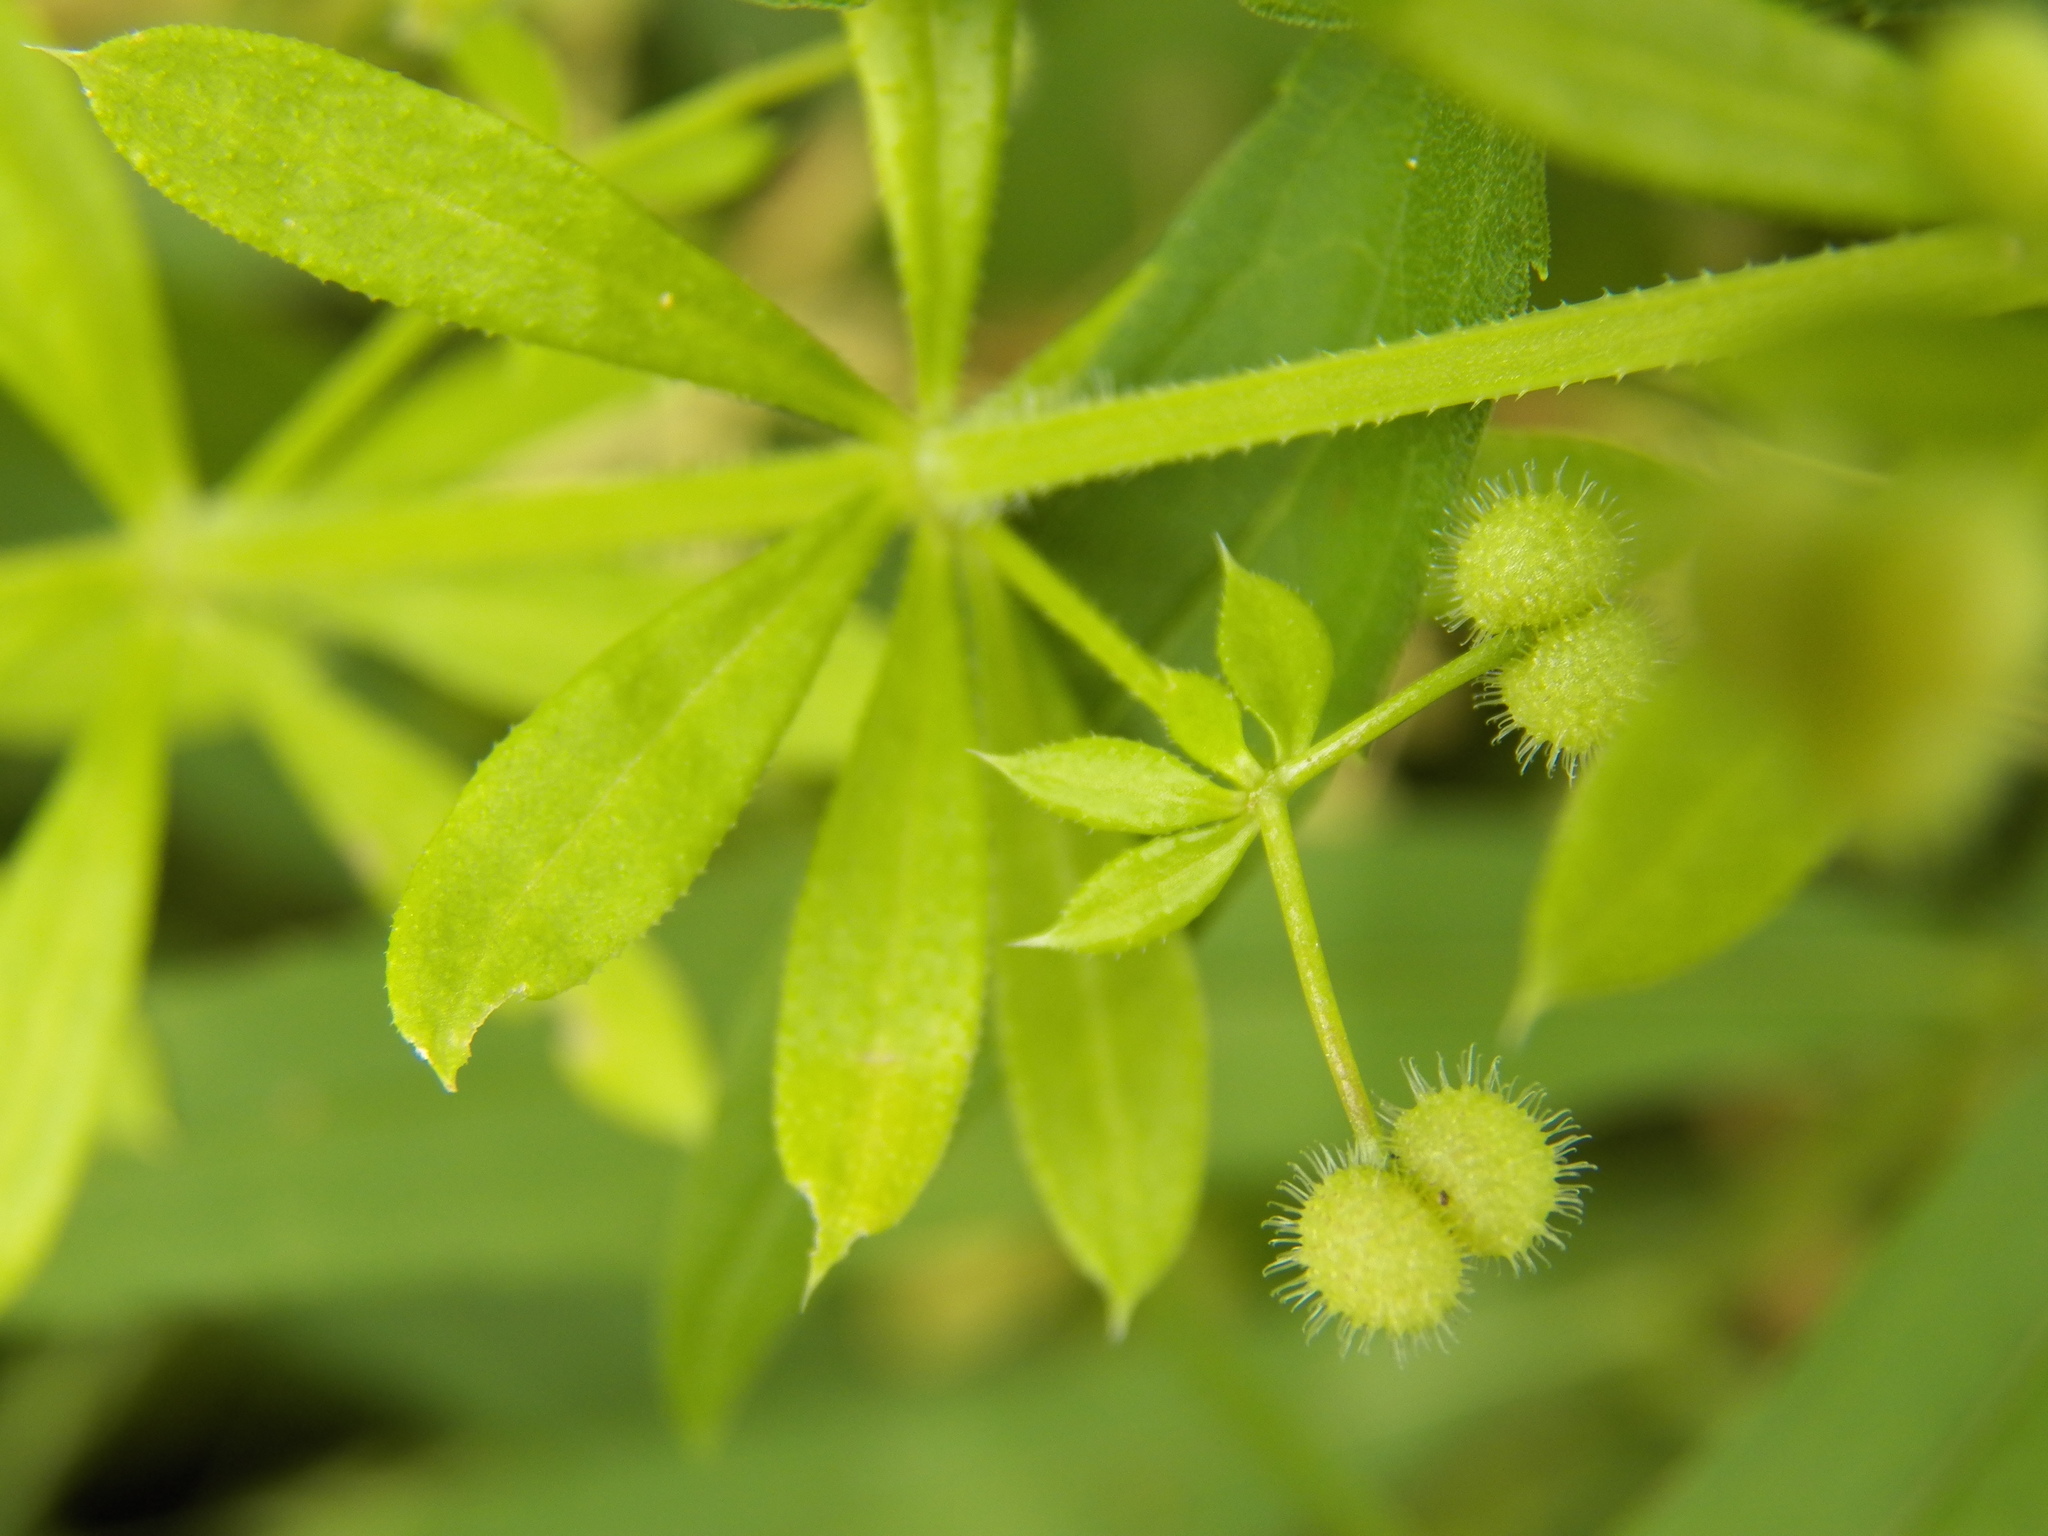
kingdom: Plantae
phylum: Tracheophyta
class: Magnoliopsida
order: Gentianales
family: Rubiaceae
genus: Galium
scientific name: Galium
